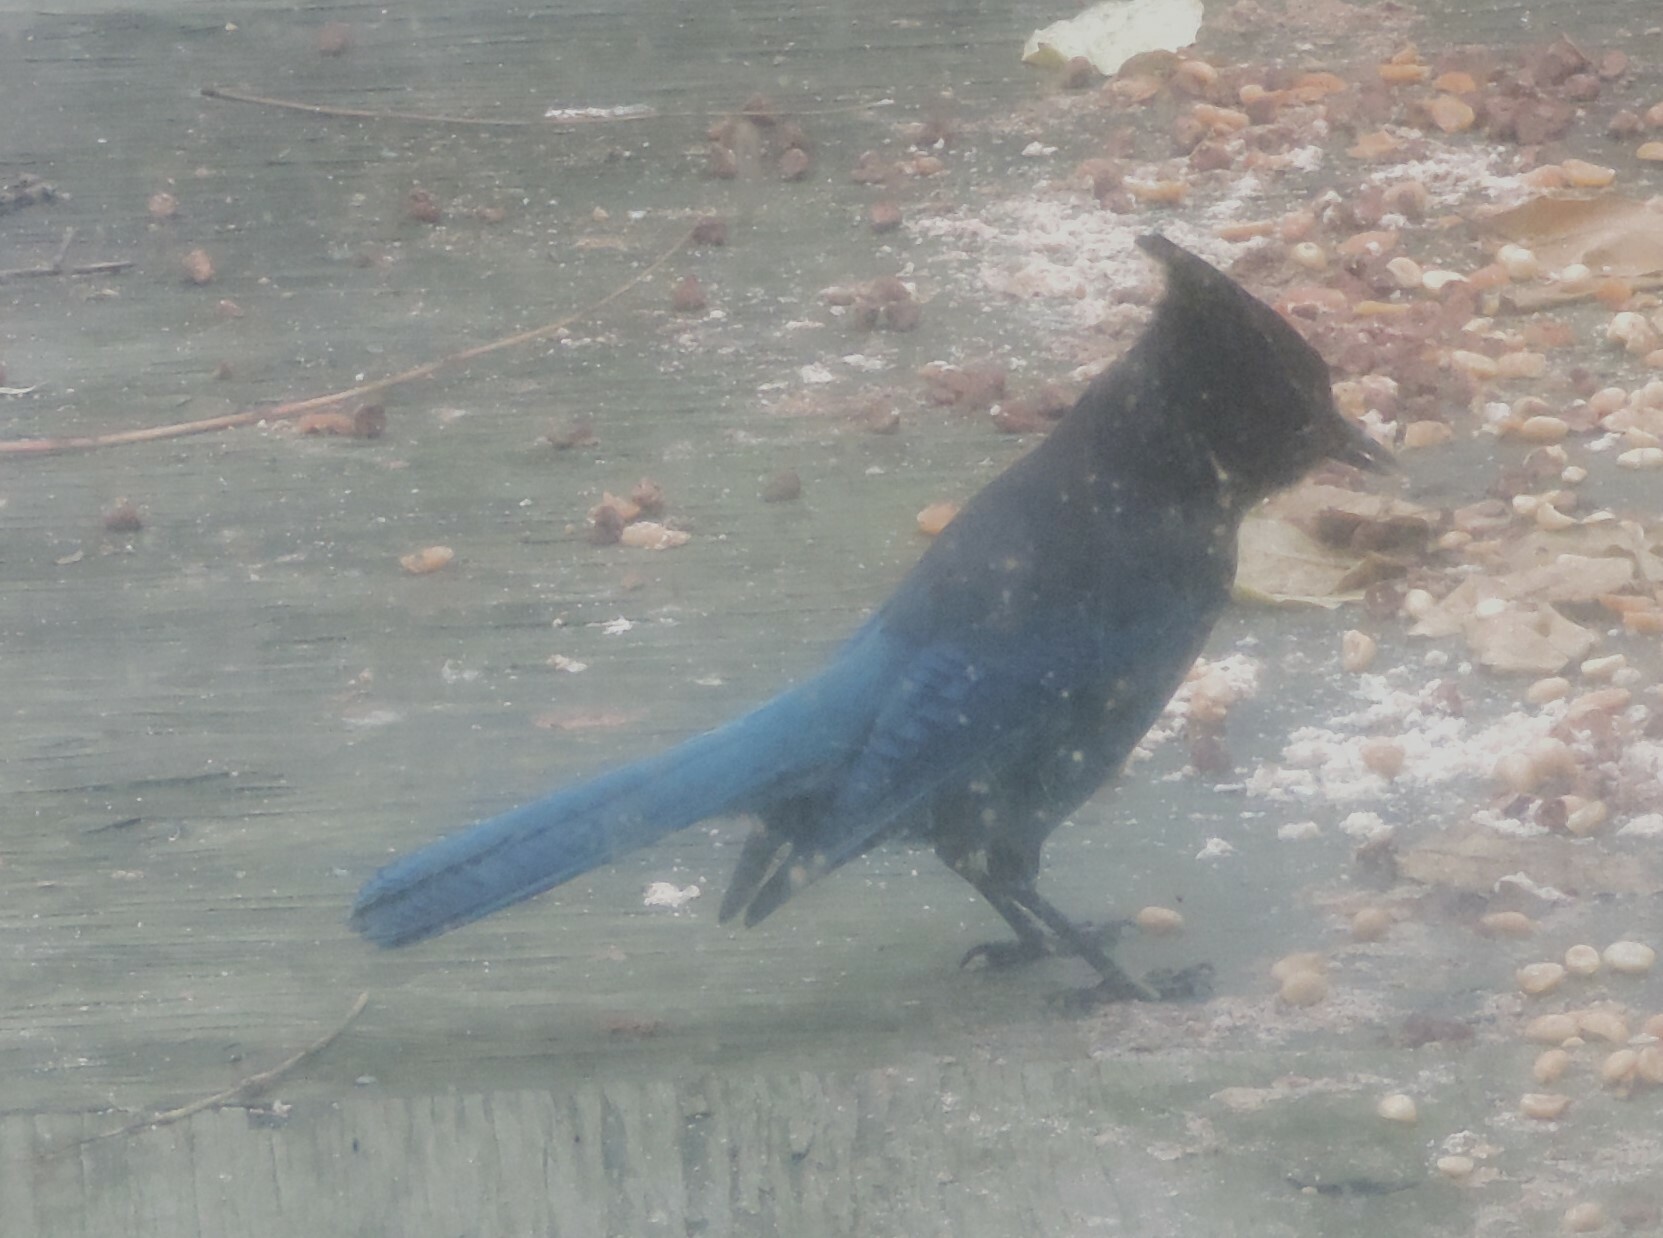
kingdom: Animalia
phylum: Chordata
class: Aves
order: Passeriformes
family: Corvidae
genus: Cyanocitta
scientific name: Cyanocitta stelleri
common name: Steller's jay
